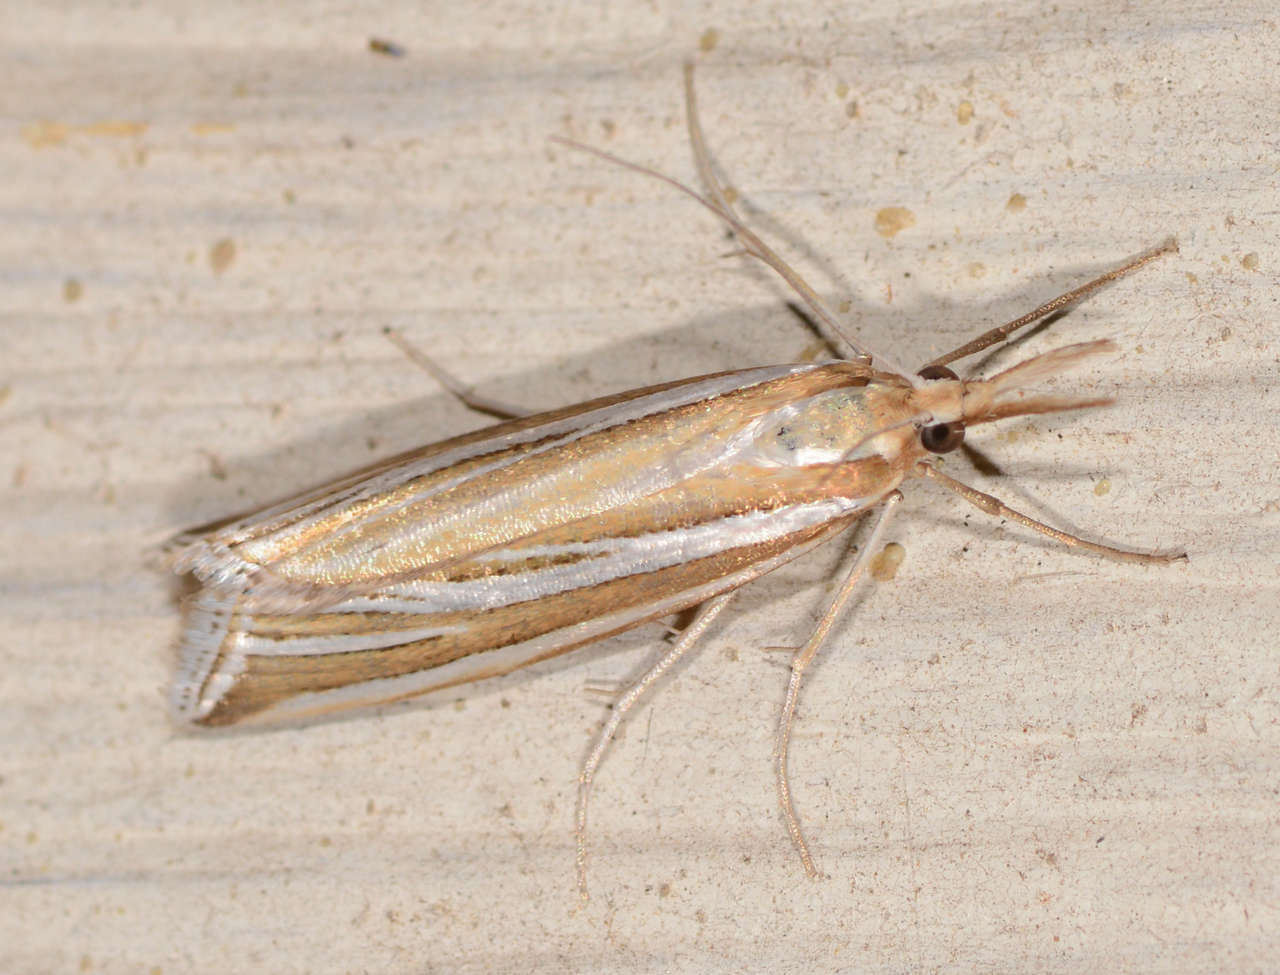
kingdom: Animalia
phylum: Arthropoda
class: Insecta
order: Lepidoptera
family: Crambidae
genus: Hednota
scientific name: Hednota relatalis
